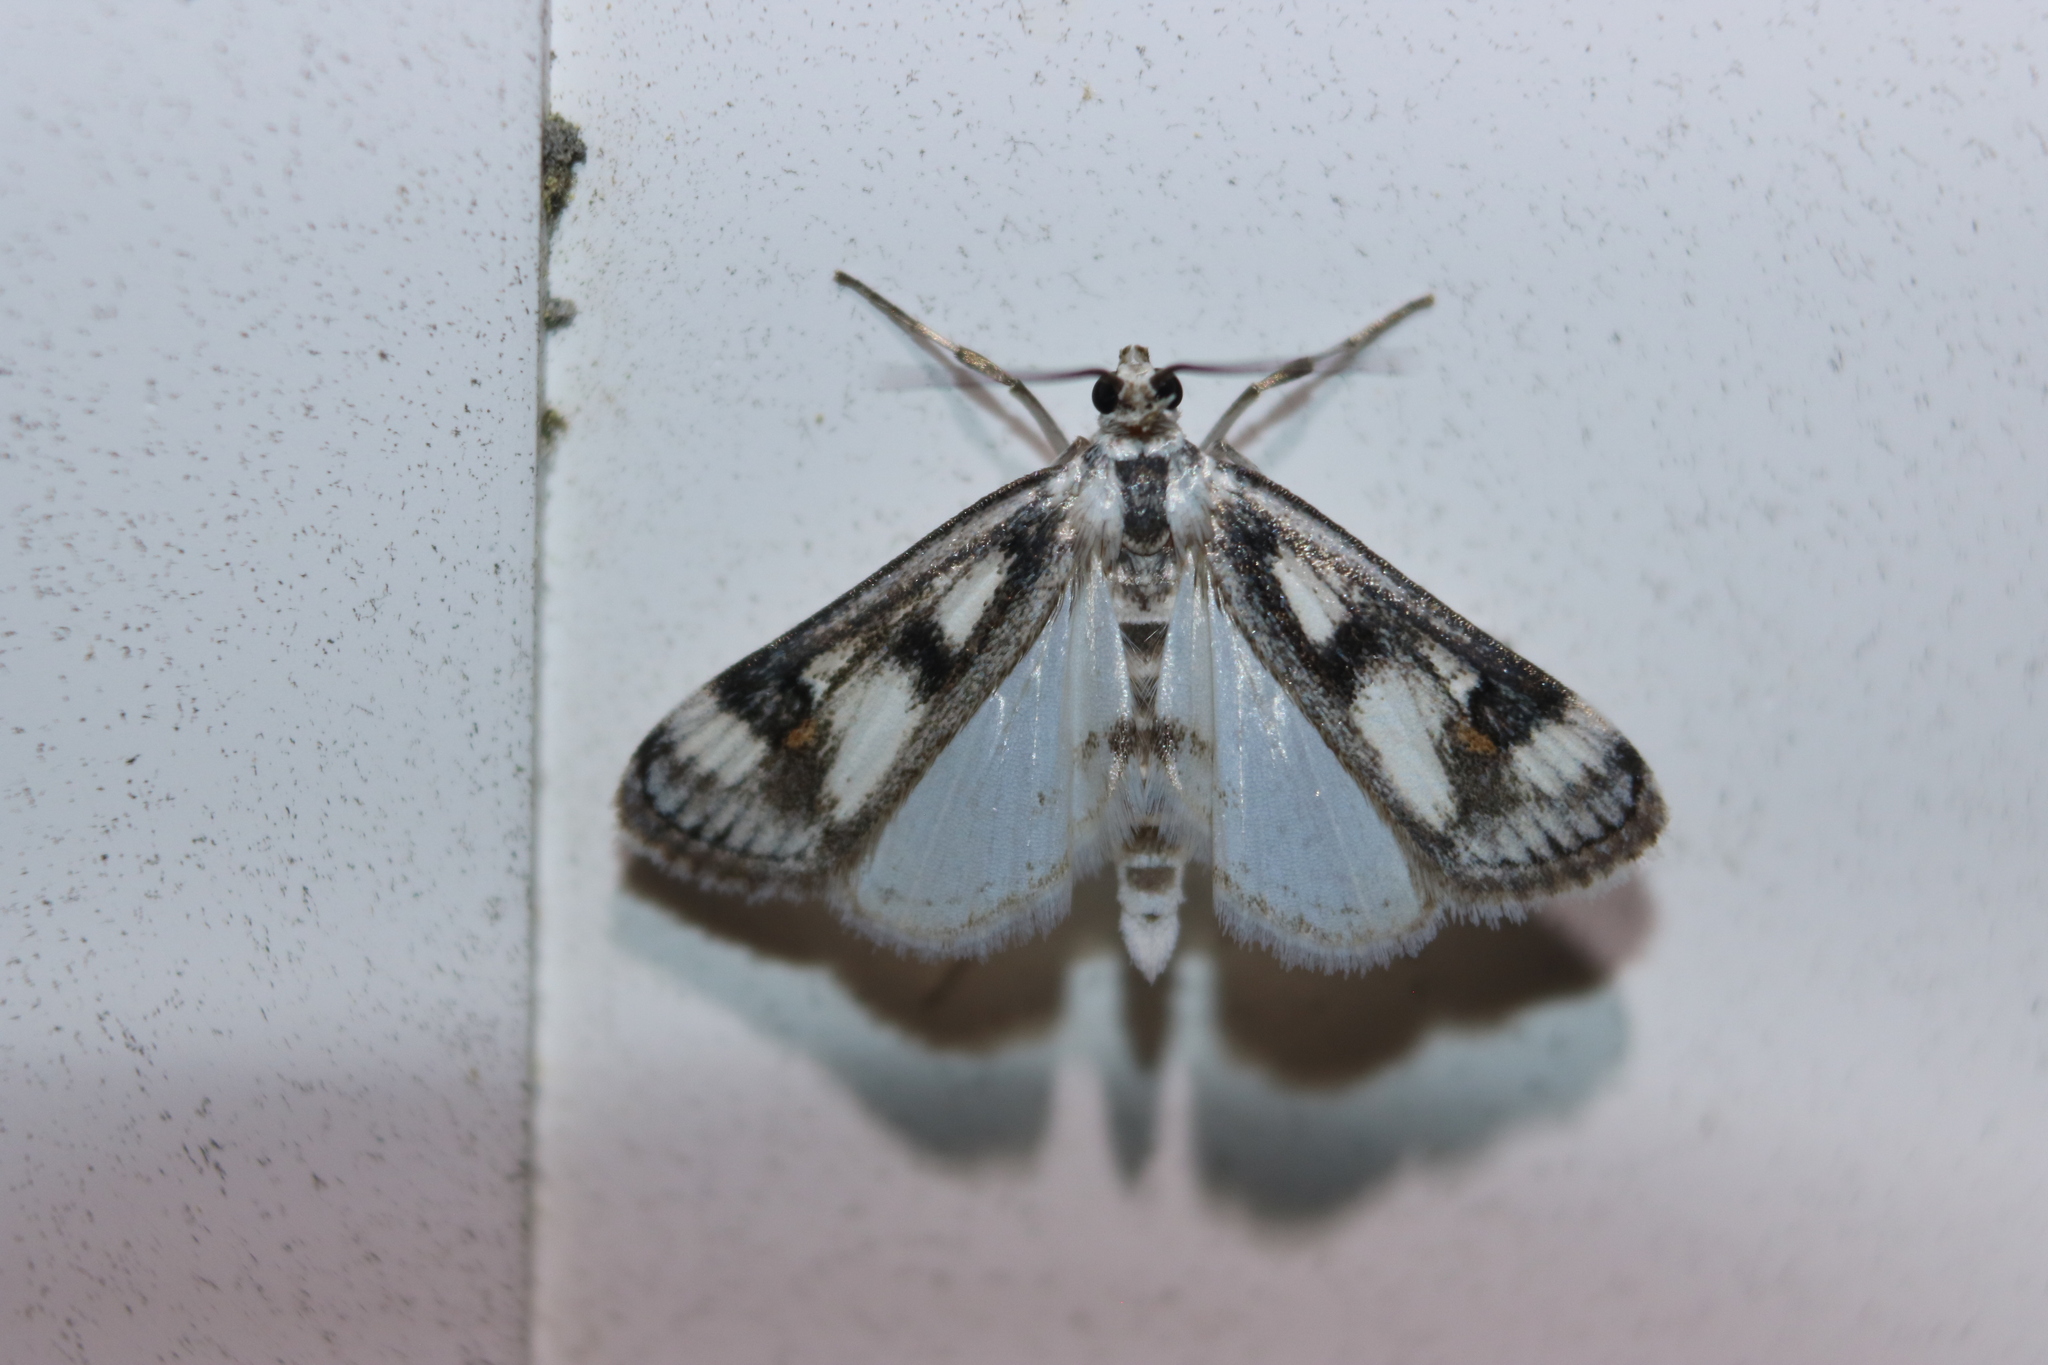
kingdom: Animalia
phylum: Arthropoda
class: Insecta
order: Lepidoptera
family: Crambidae
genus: Parapoynx
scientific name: Parapoynx maculalis
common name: Polymorphic pondweed moth
